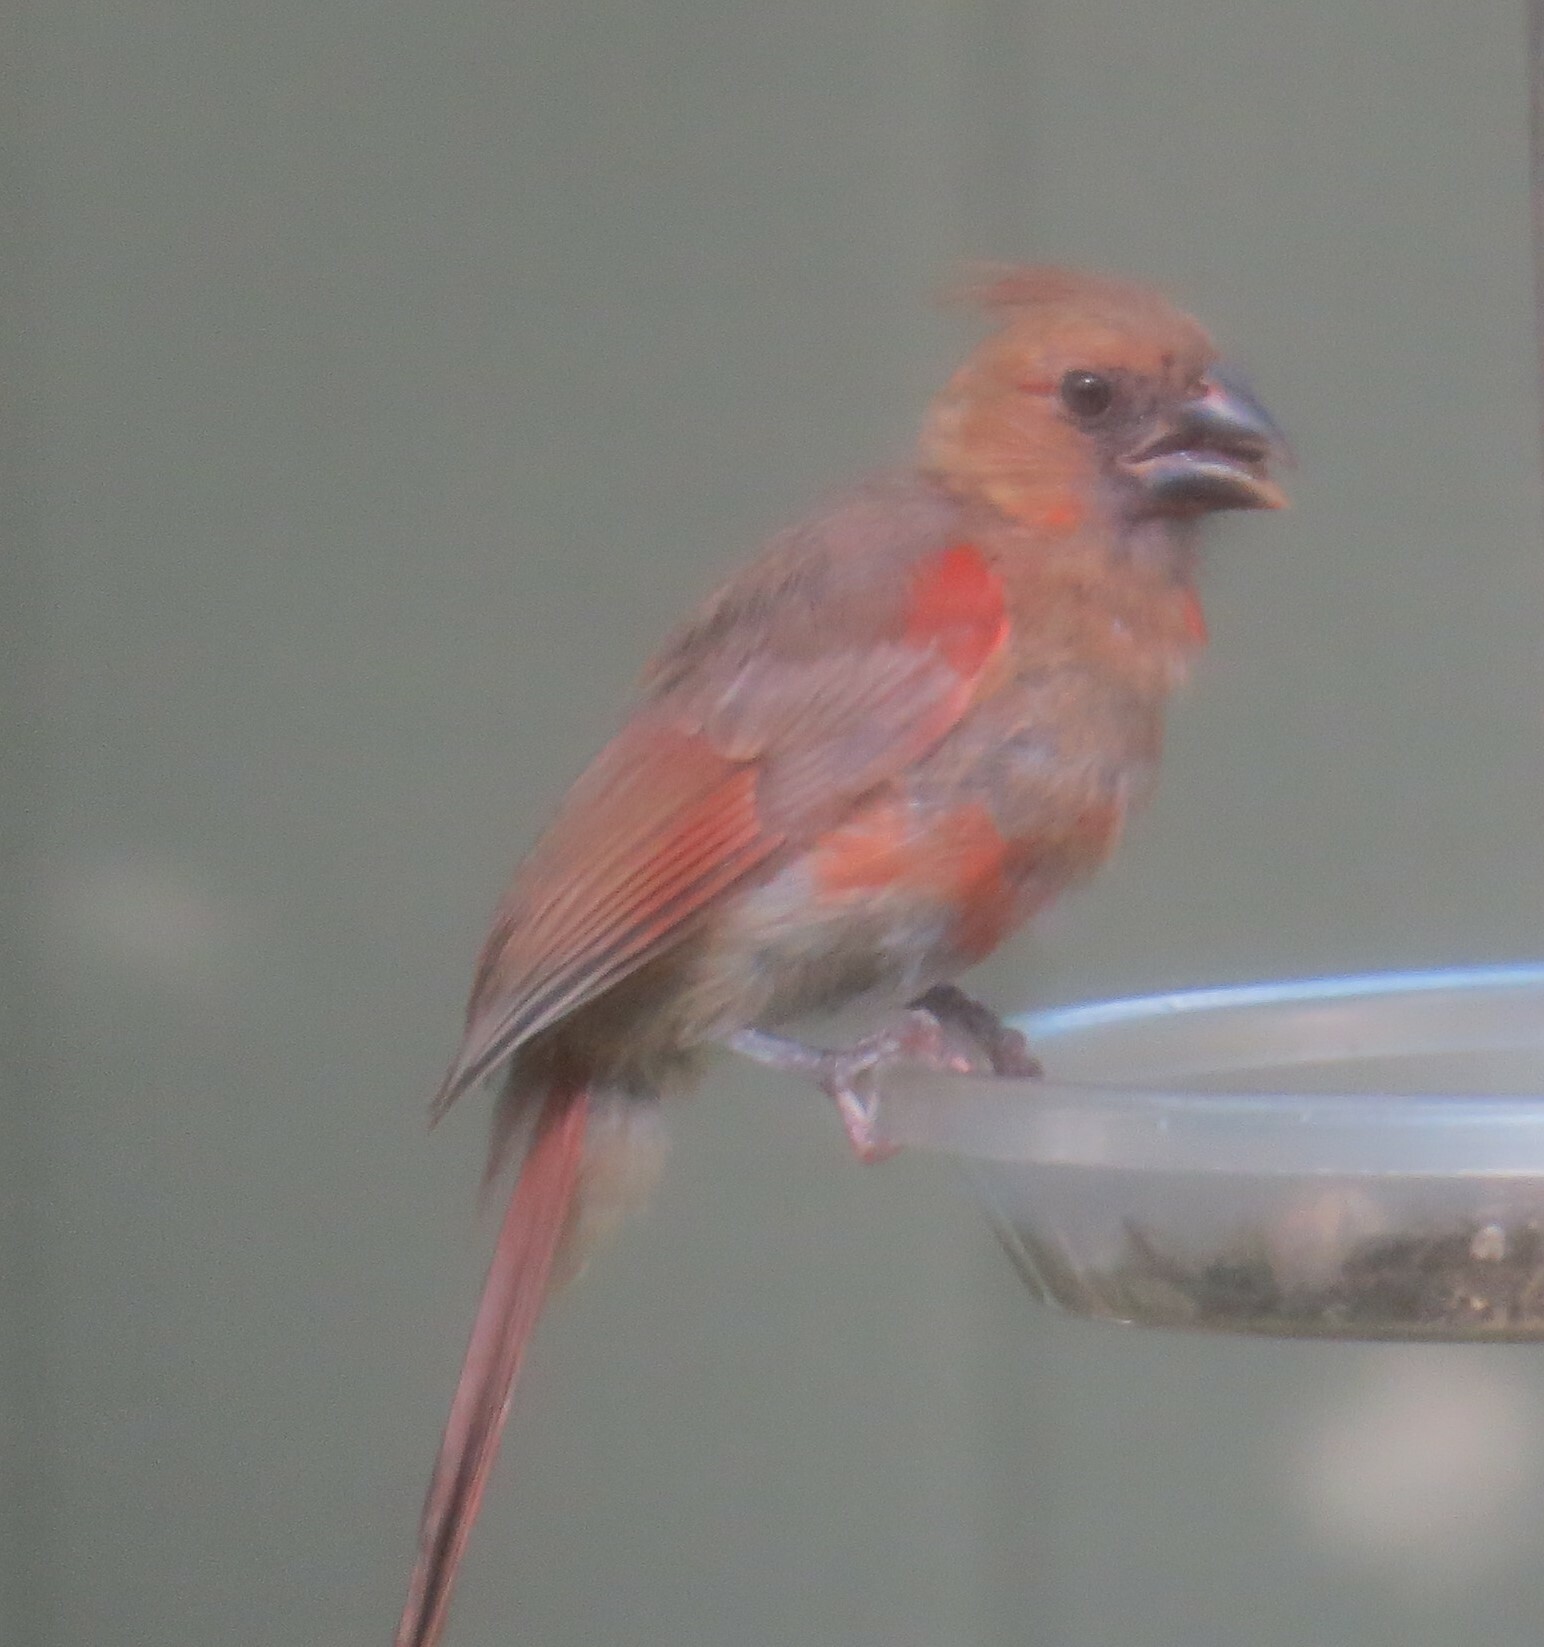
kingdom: Animalia
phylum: Chordata
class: Aves
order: Passeriformes
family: Cardinalidae
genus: Cardinalis
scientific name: Cardinalis cardinalis
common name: Northern cardinal
